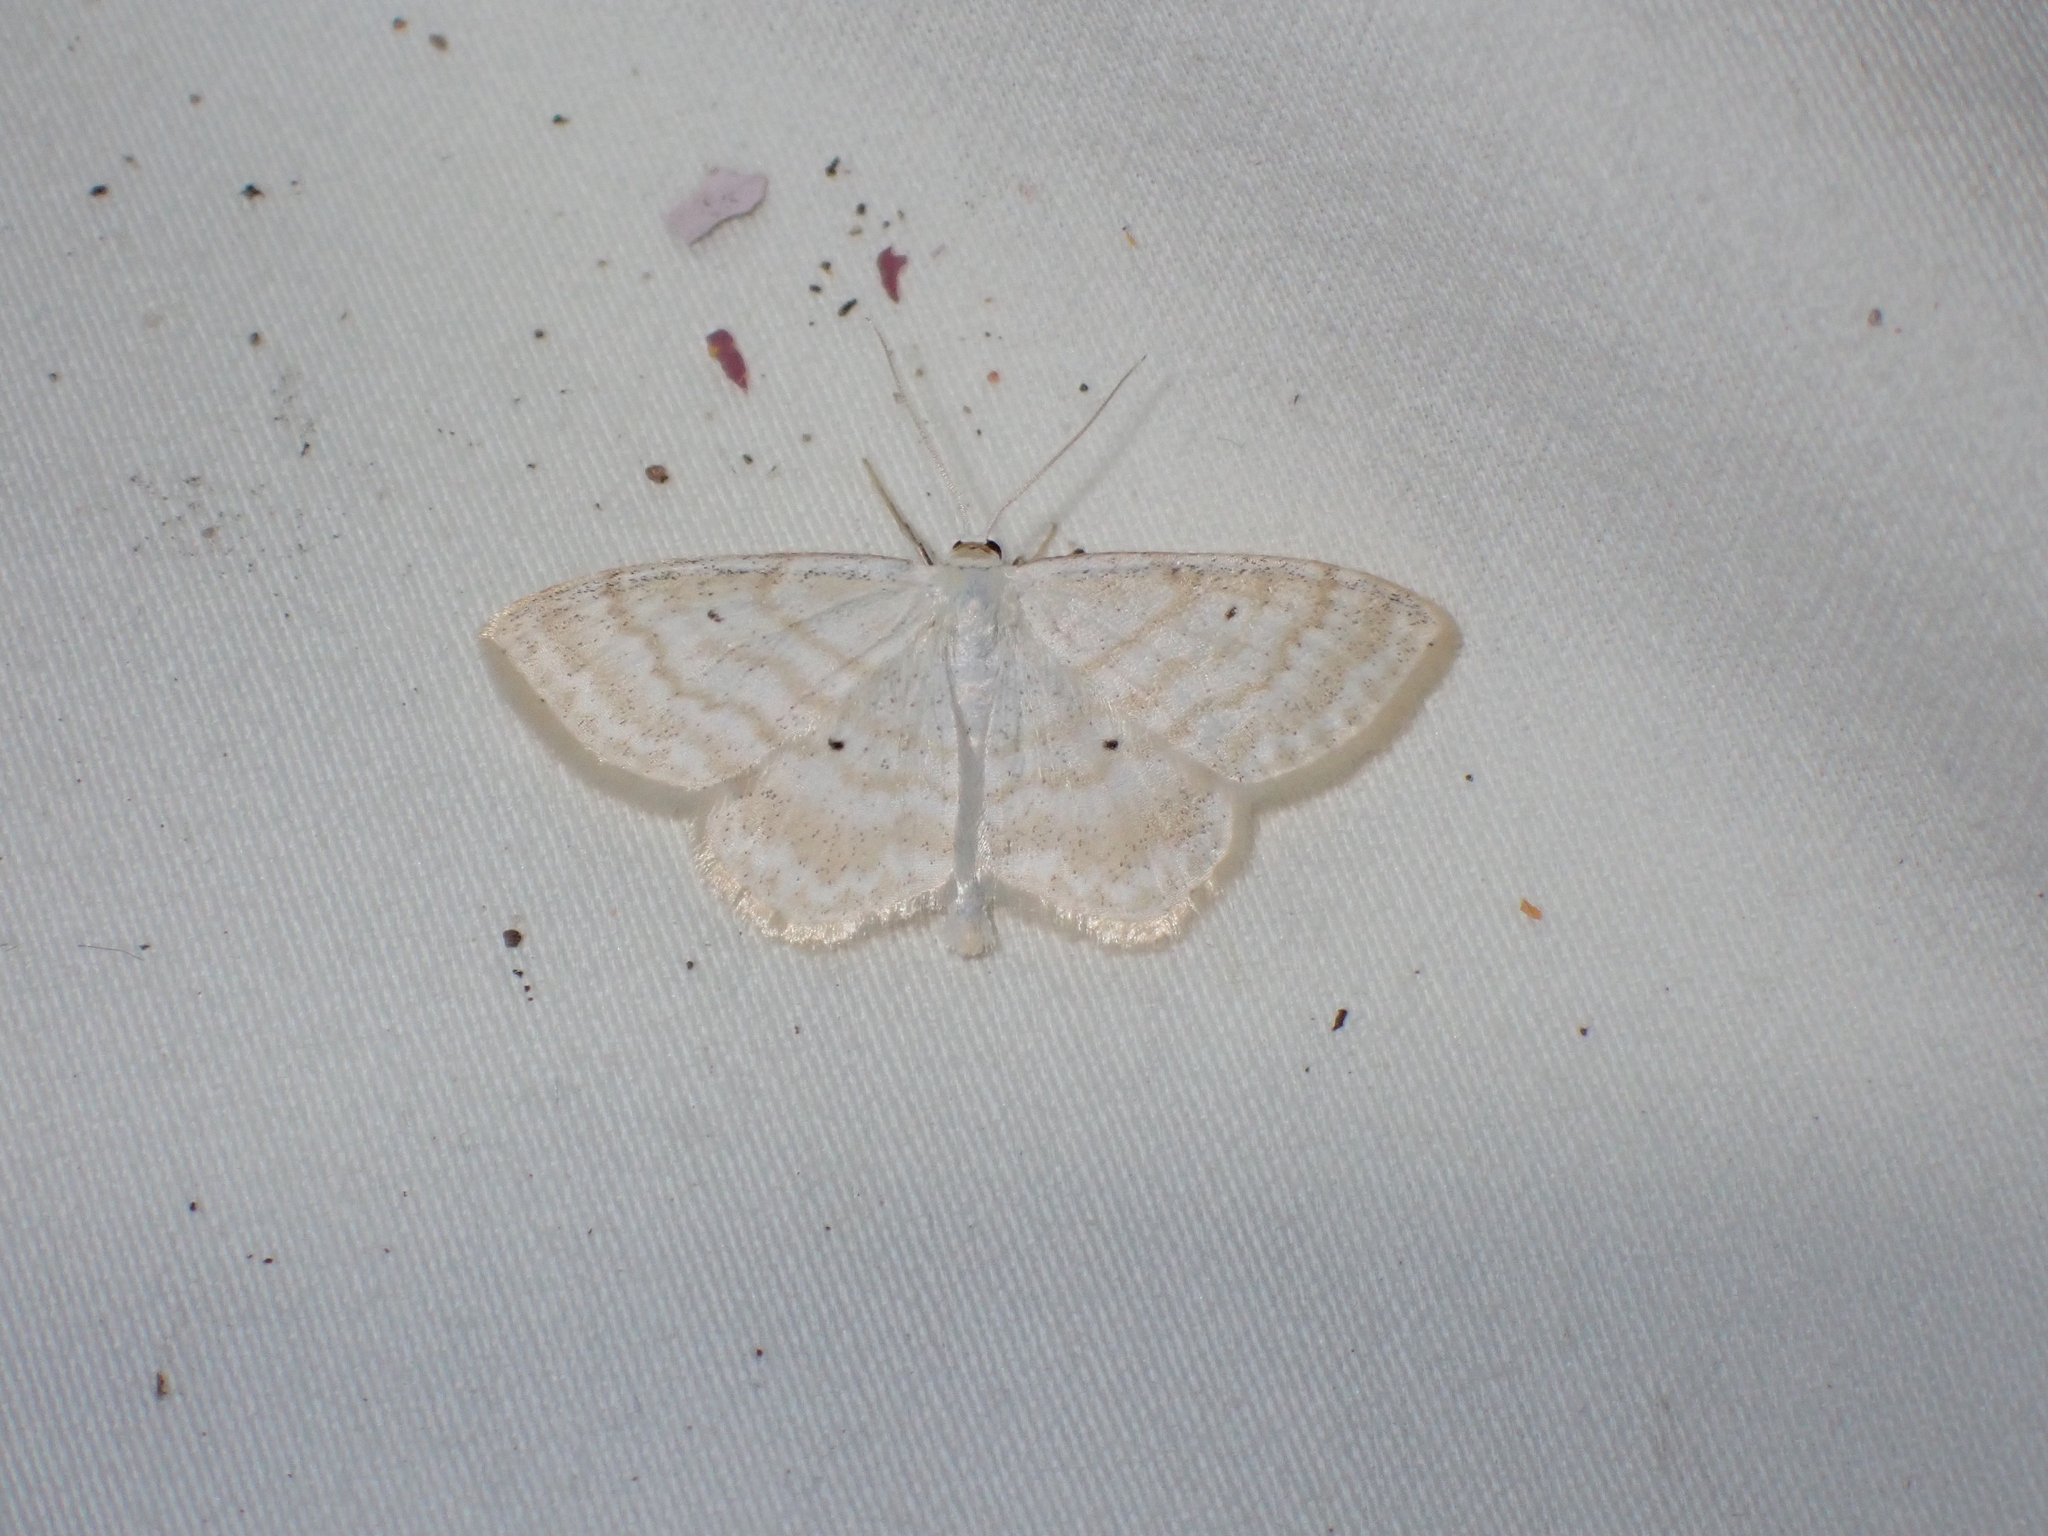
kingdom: Animalia
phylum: Arthropoda
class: Insecta
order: Lepidoptera
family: Geometridae
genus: Scopula
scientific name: Scopula immutata
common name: Lesser cream wave
